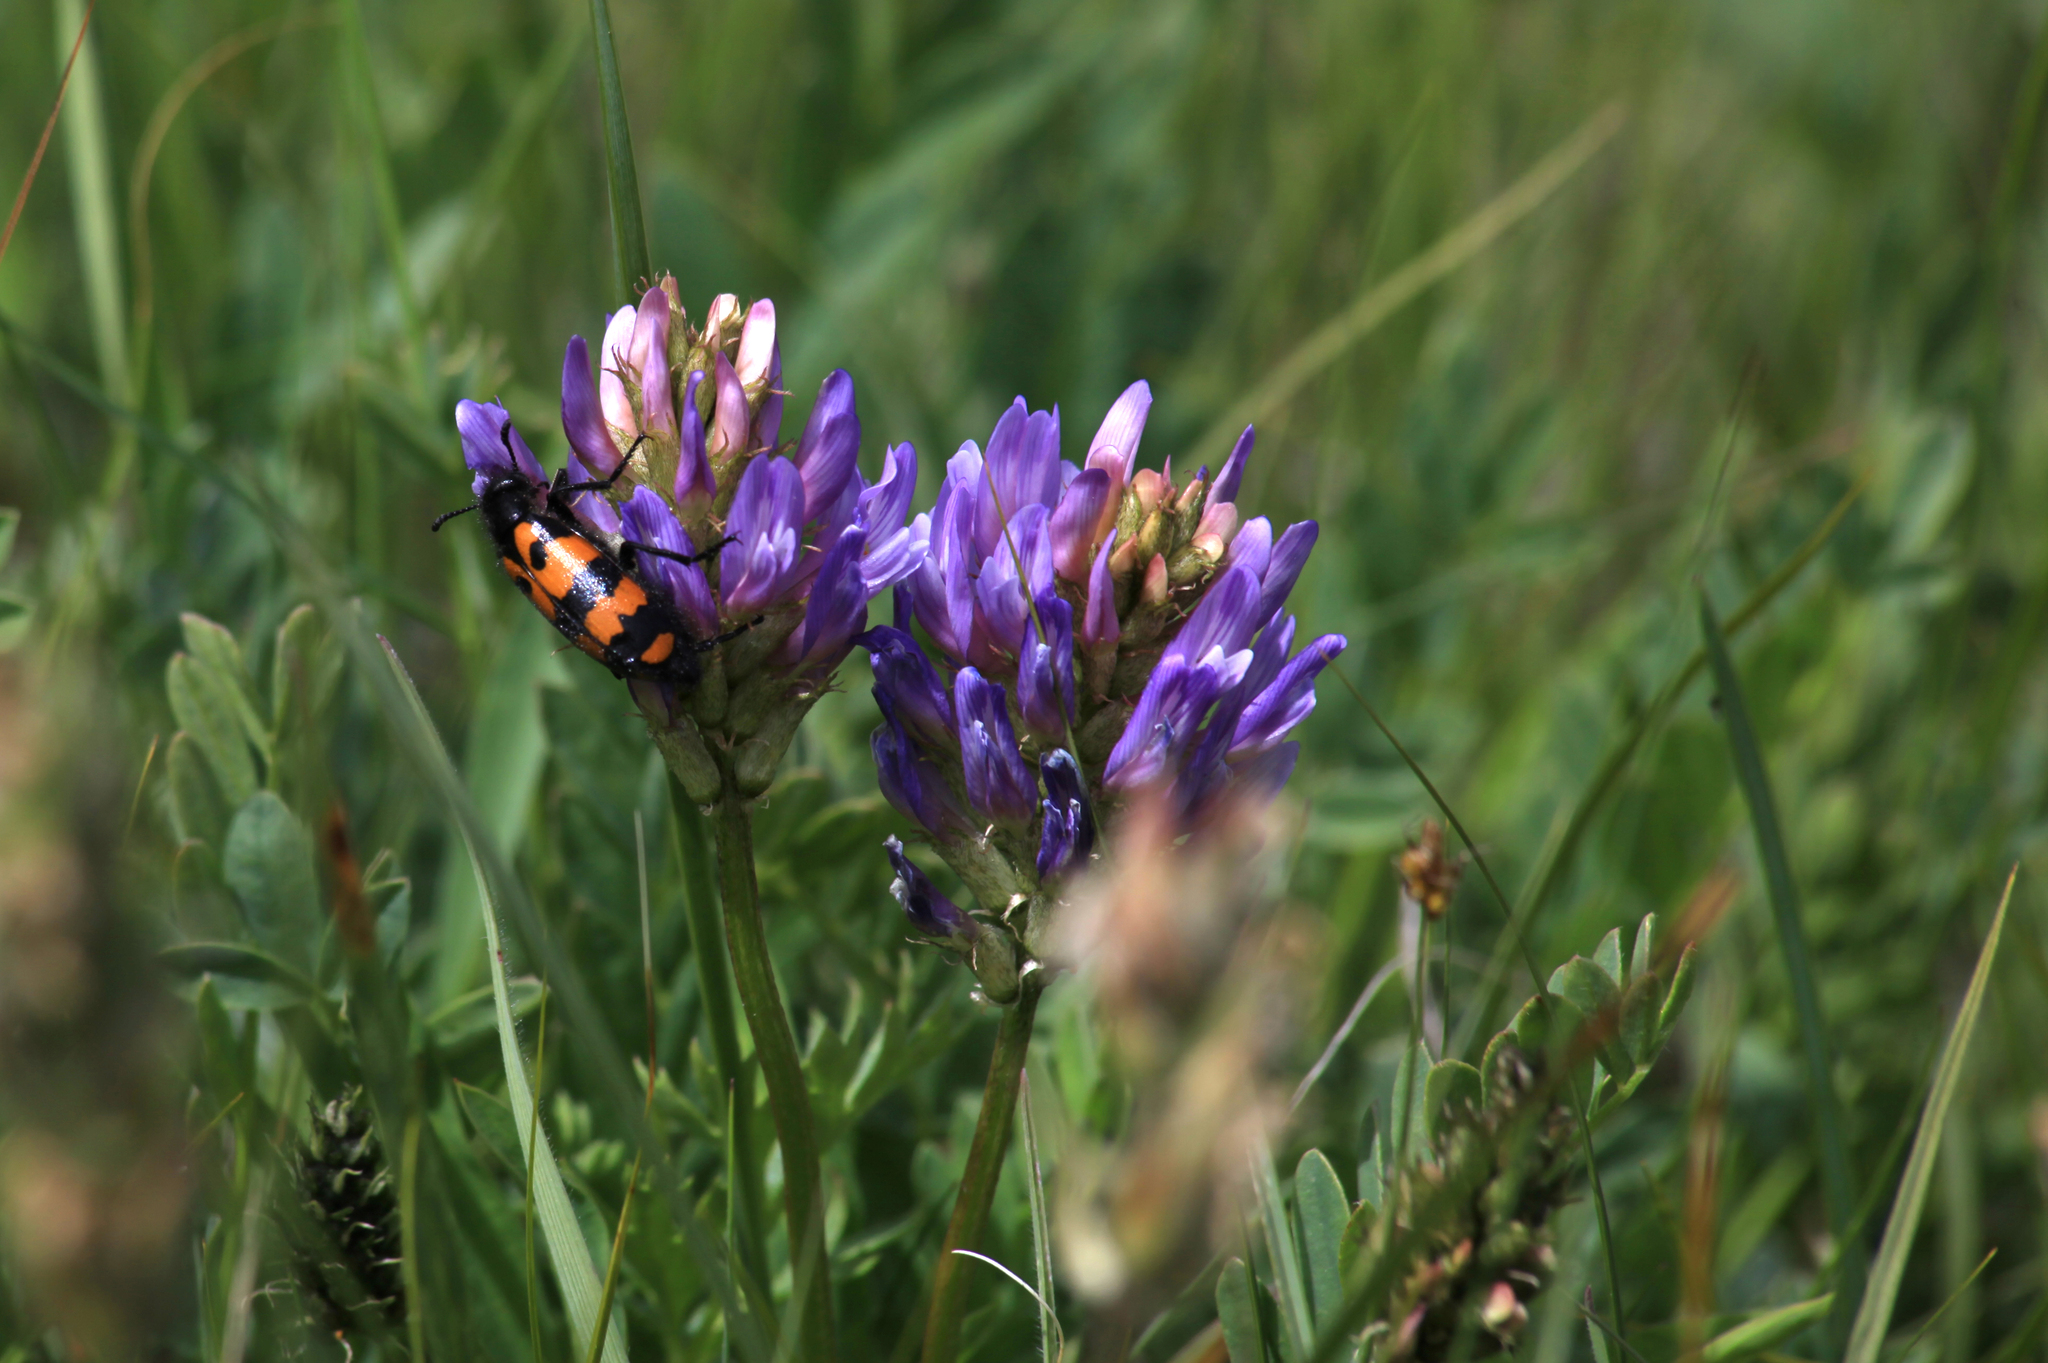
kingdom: Plantae
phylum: Tracheophyta
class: Magnoliopsida
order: Fabales
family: Fabaceae
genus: Astragalus
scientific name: Astragalus laxmannii
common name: Laxmann's milk-vetch
